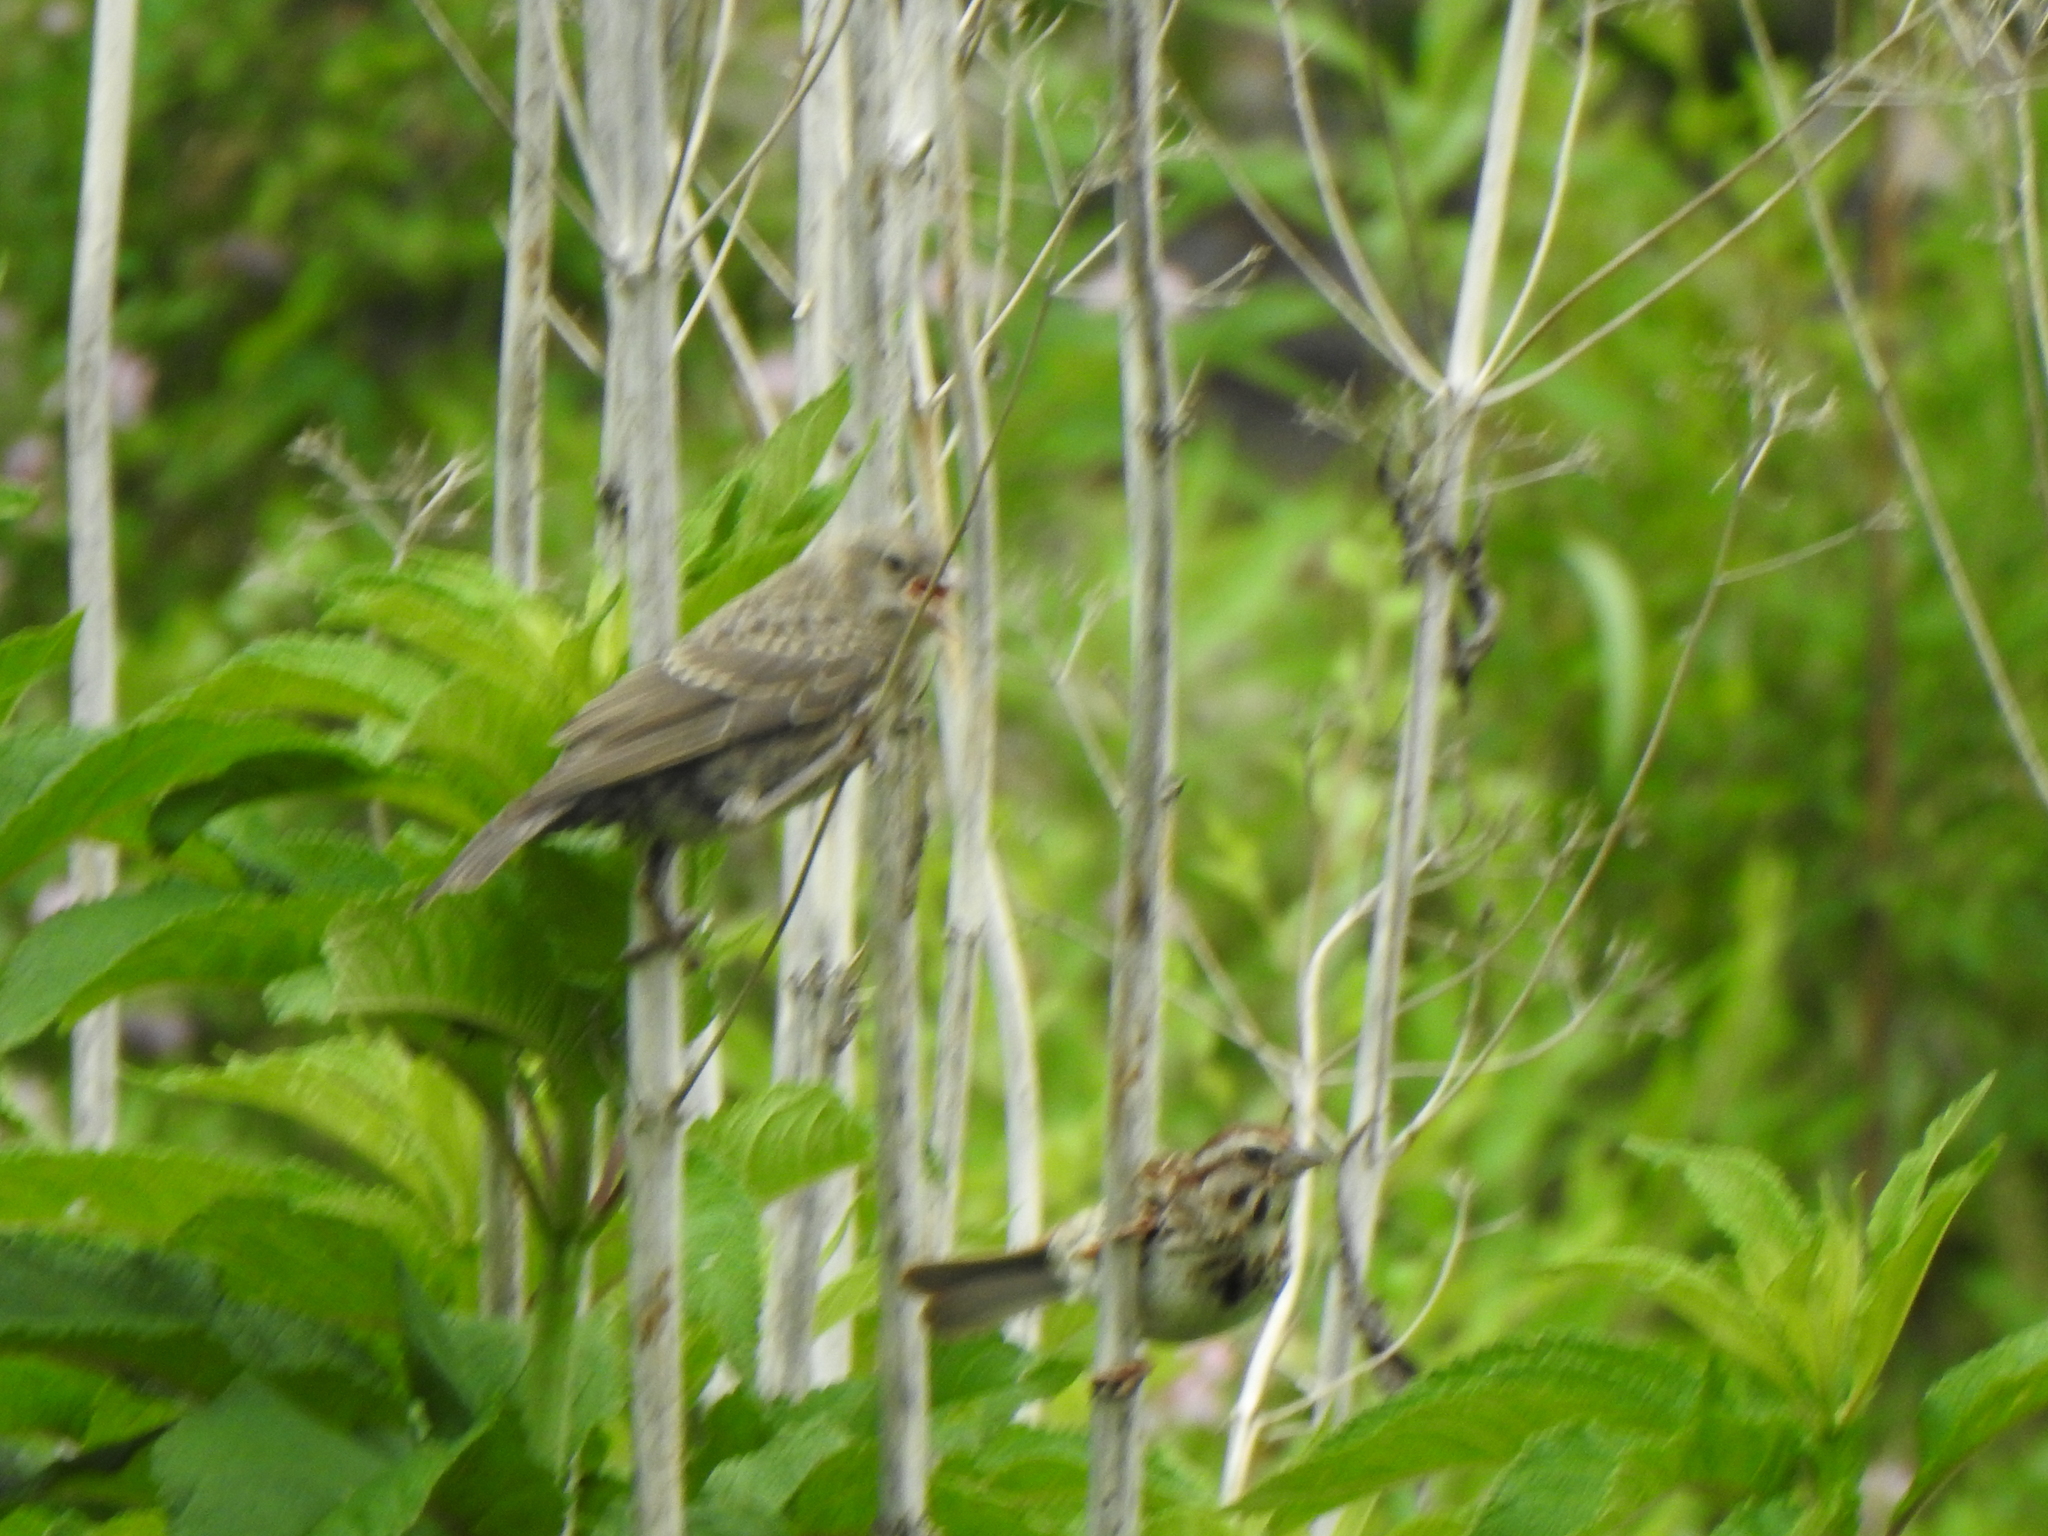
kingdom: Animalia
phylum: Chordata
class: Aves
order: Passeriformes
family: Passerellidae
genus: Melospiza
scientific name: Melospiza melodia
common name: Song sparrow
